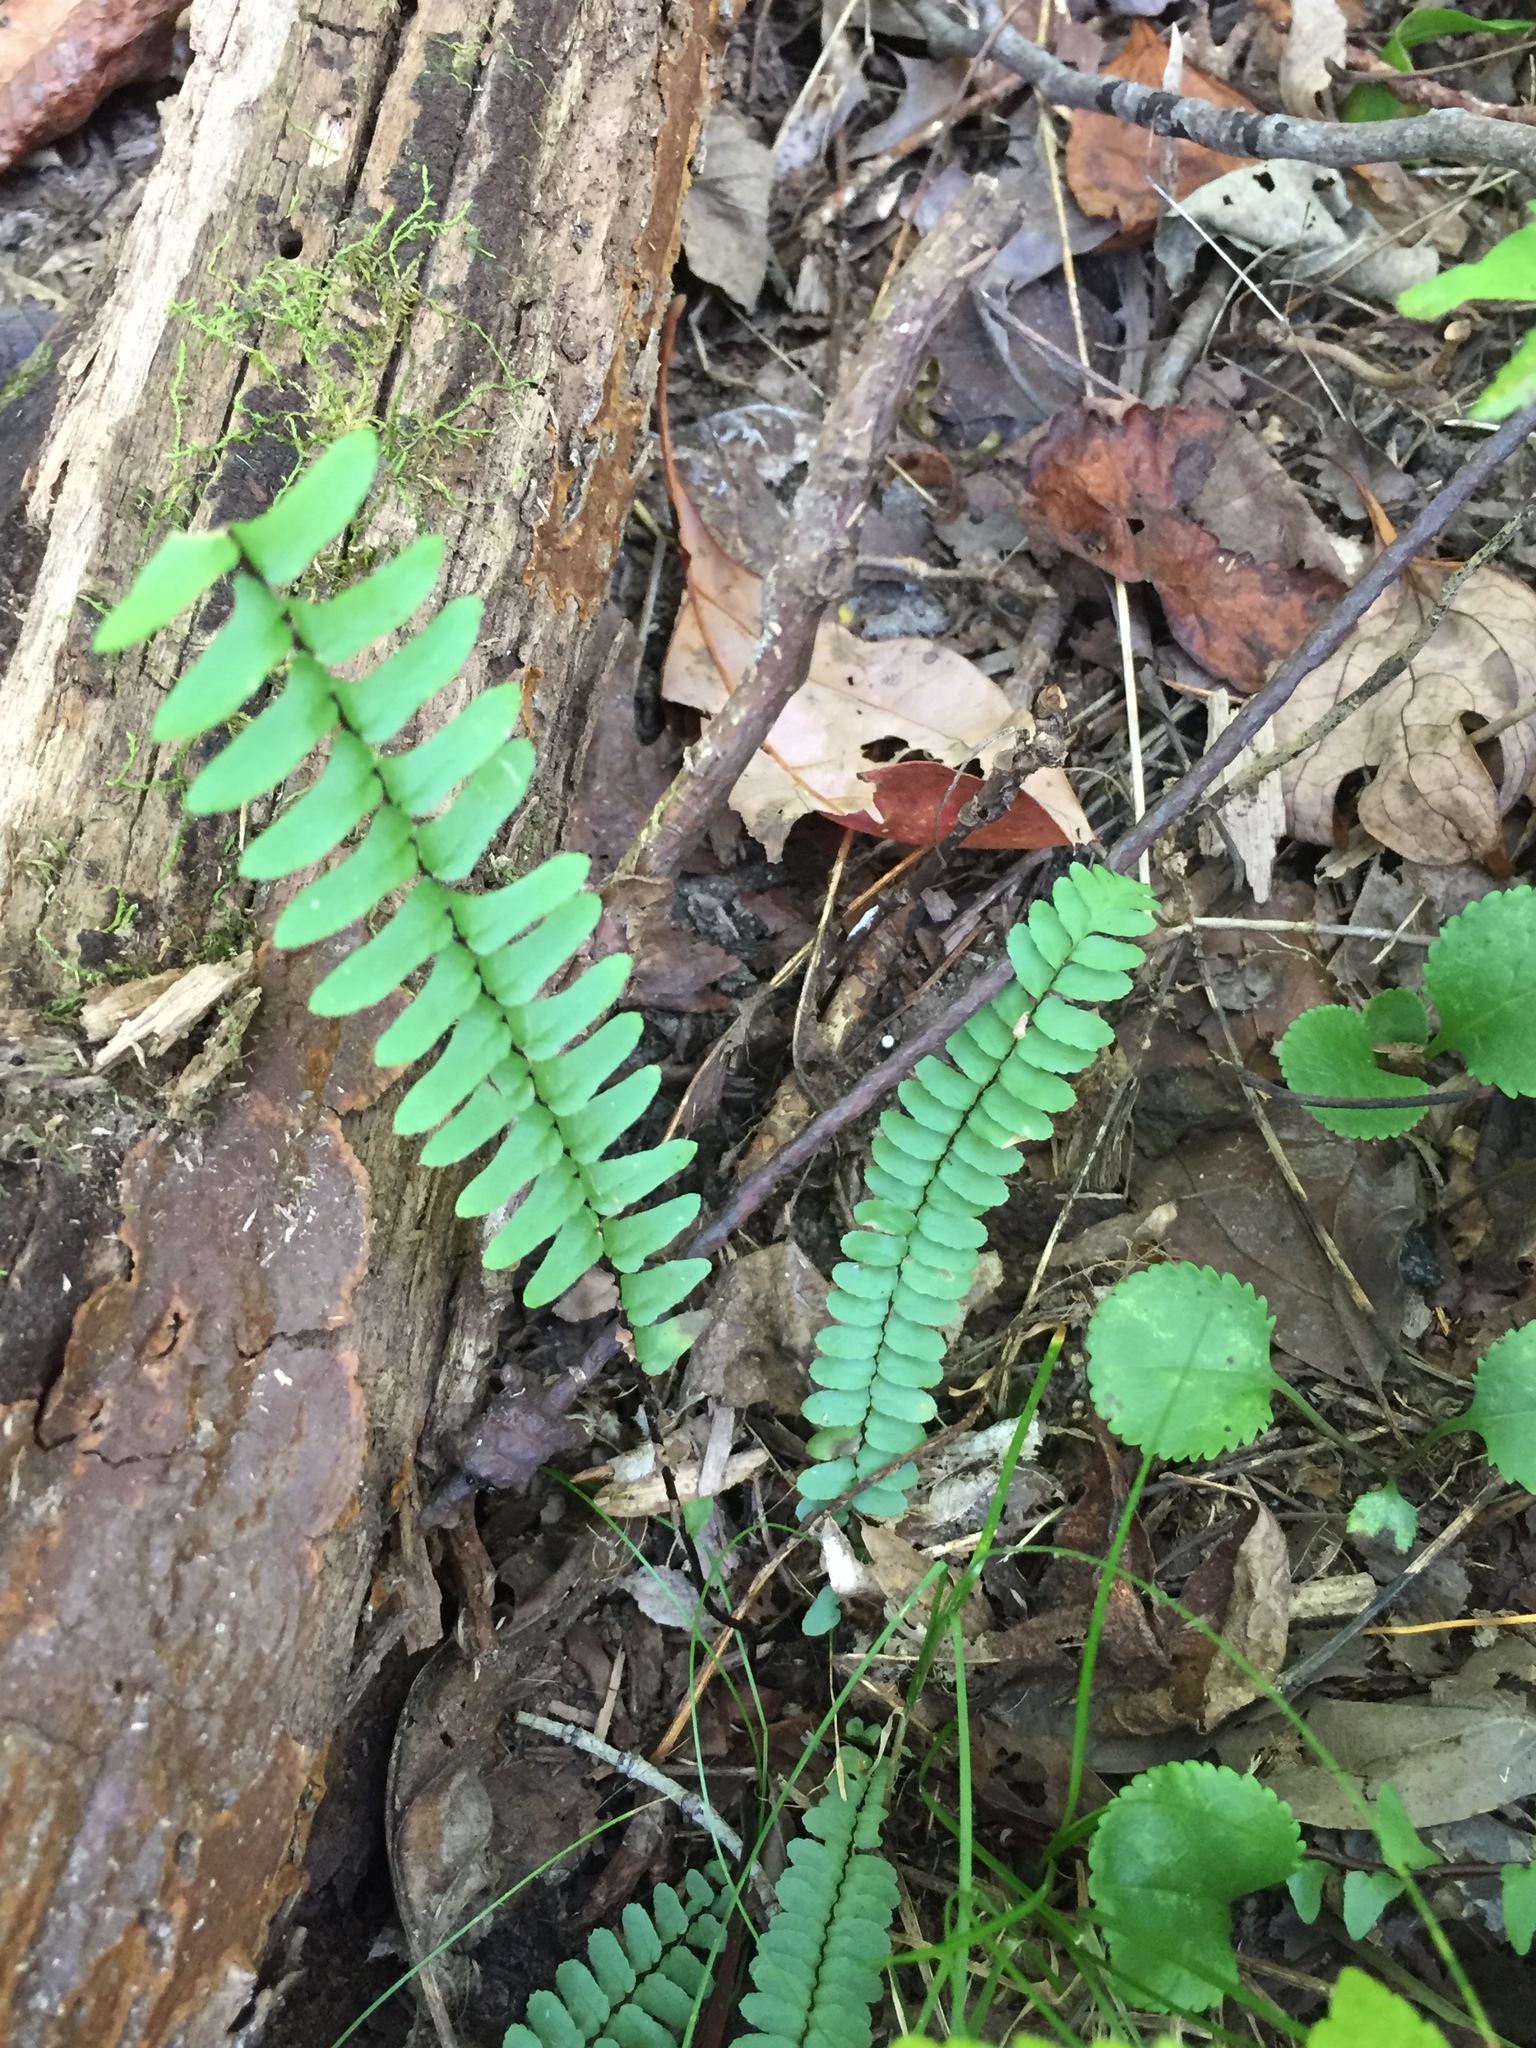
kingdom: Plantae
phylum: Tracheophyta
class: Polypodiopsida
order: Polypodiales
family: Aspleniaceae
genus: Asplenium
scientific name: Asplenium platyneuron
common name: Ebony spleenwort
